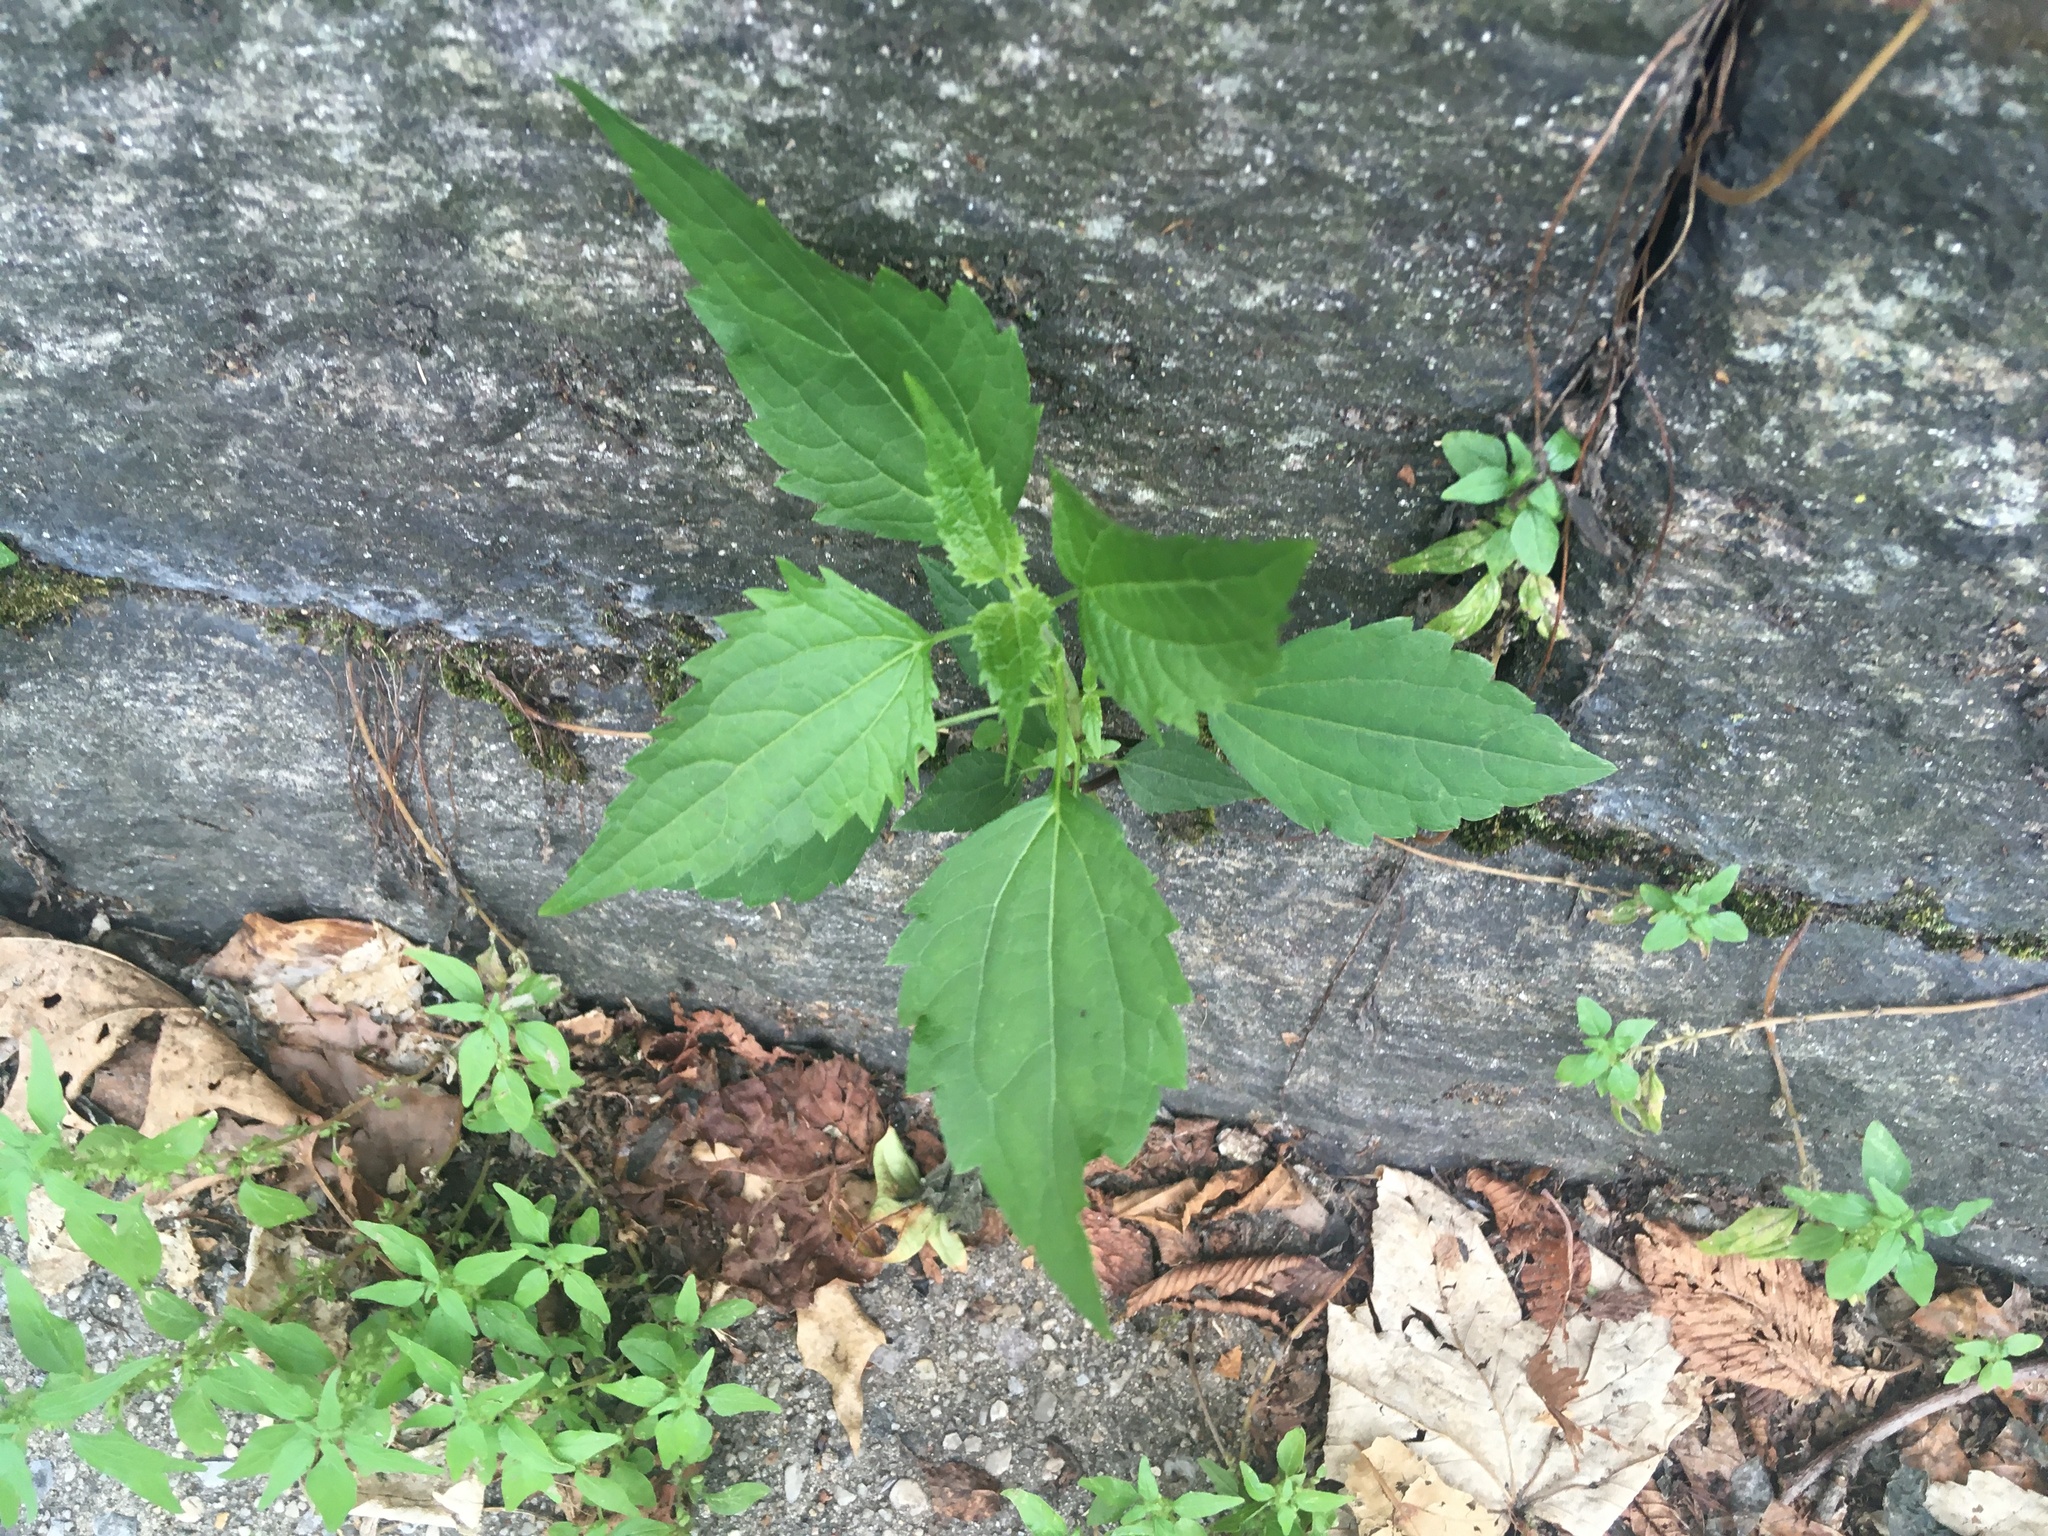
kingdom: Plantae
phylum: Tracheophyta
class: Magnoliopsida
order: Asterales
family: Asteraceae
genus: Ageratina
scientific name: Ageratina altissima
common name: White snakeroot
